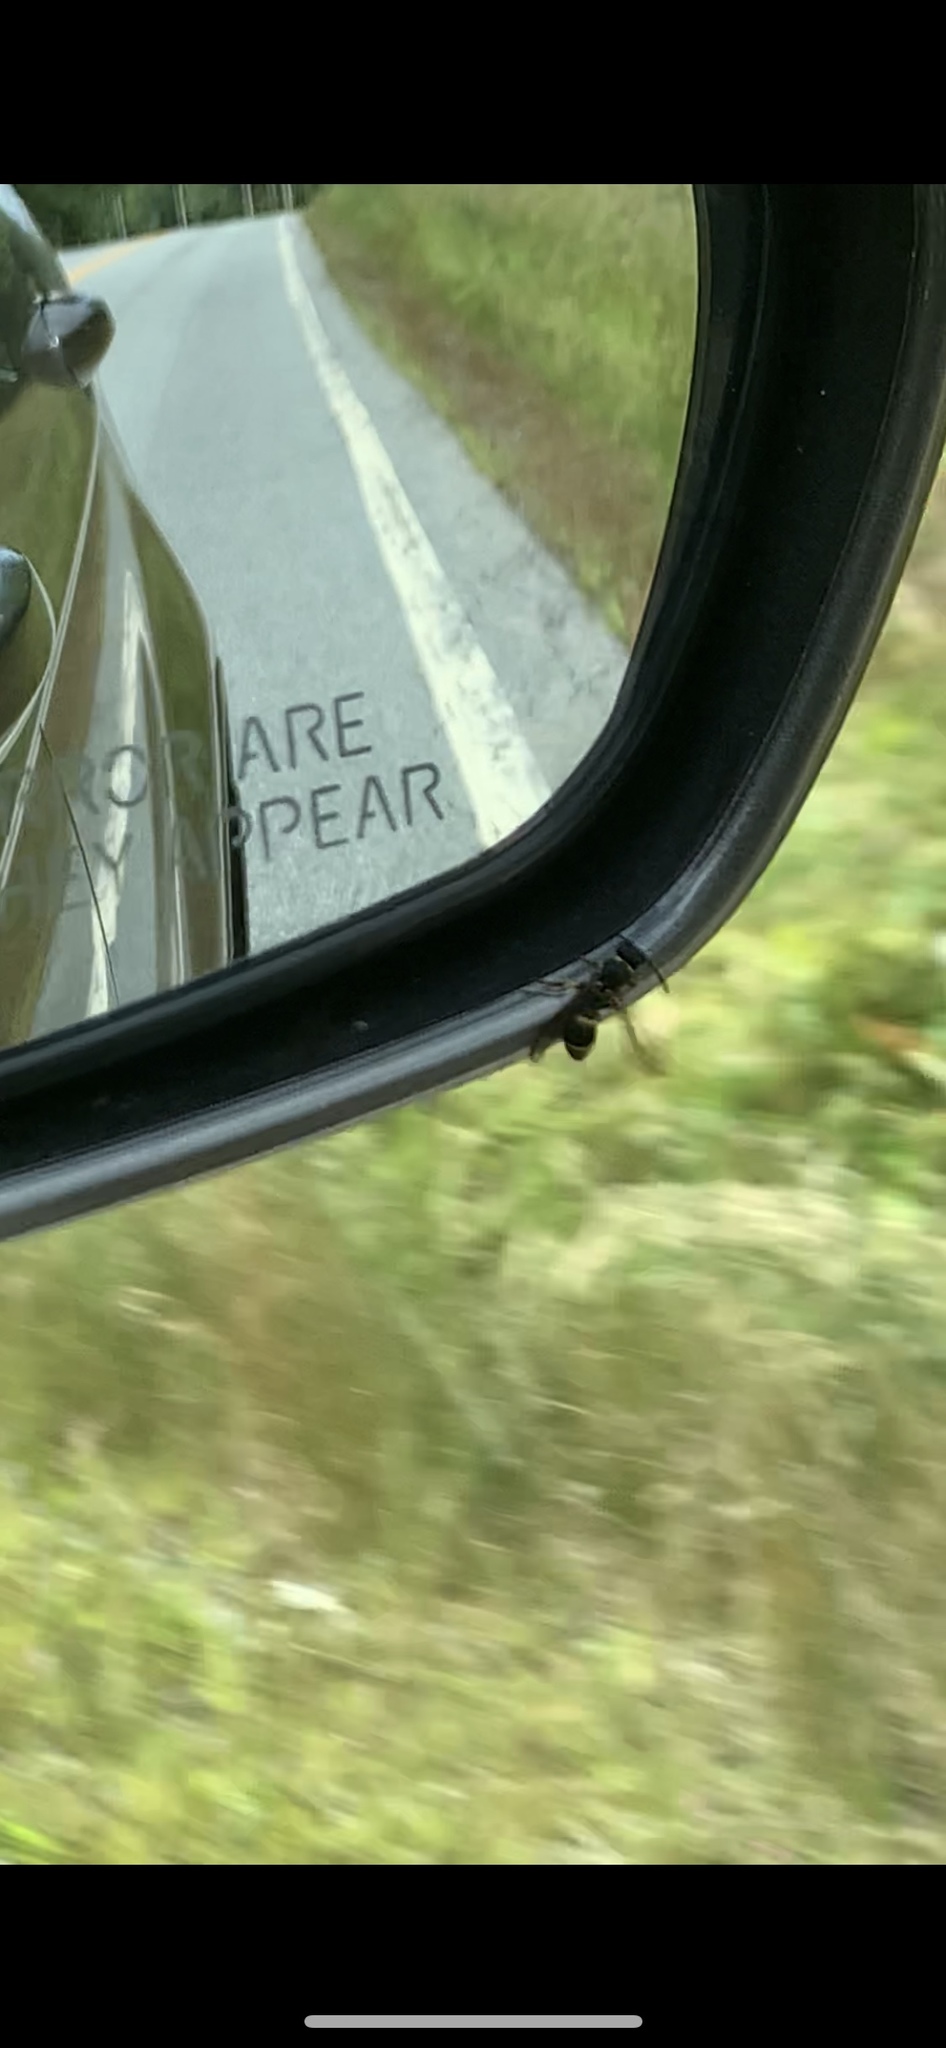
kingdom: Animalia
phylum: Arthropoda
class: Insecta
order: Hymenoptera
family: Vespidae
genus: Ancistrocerus
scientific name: Ancistrocerus adiabatus
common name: Bramble mason wasp
